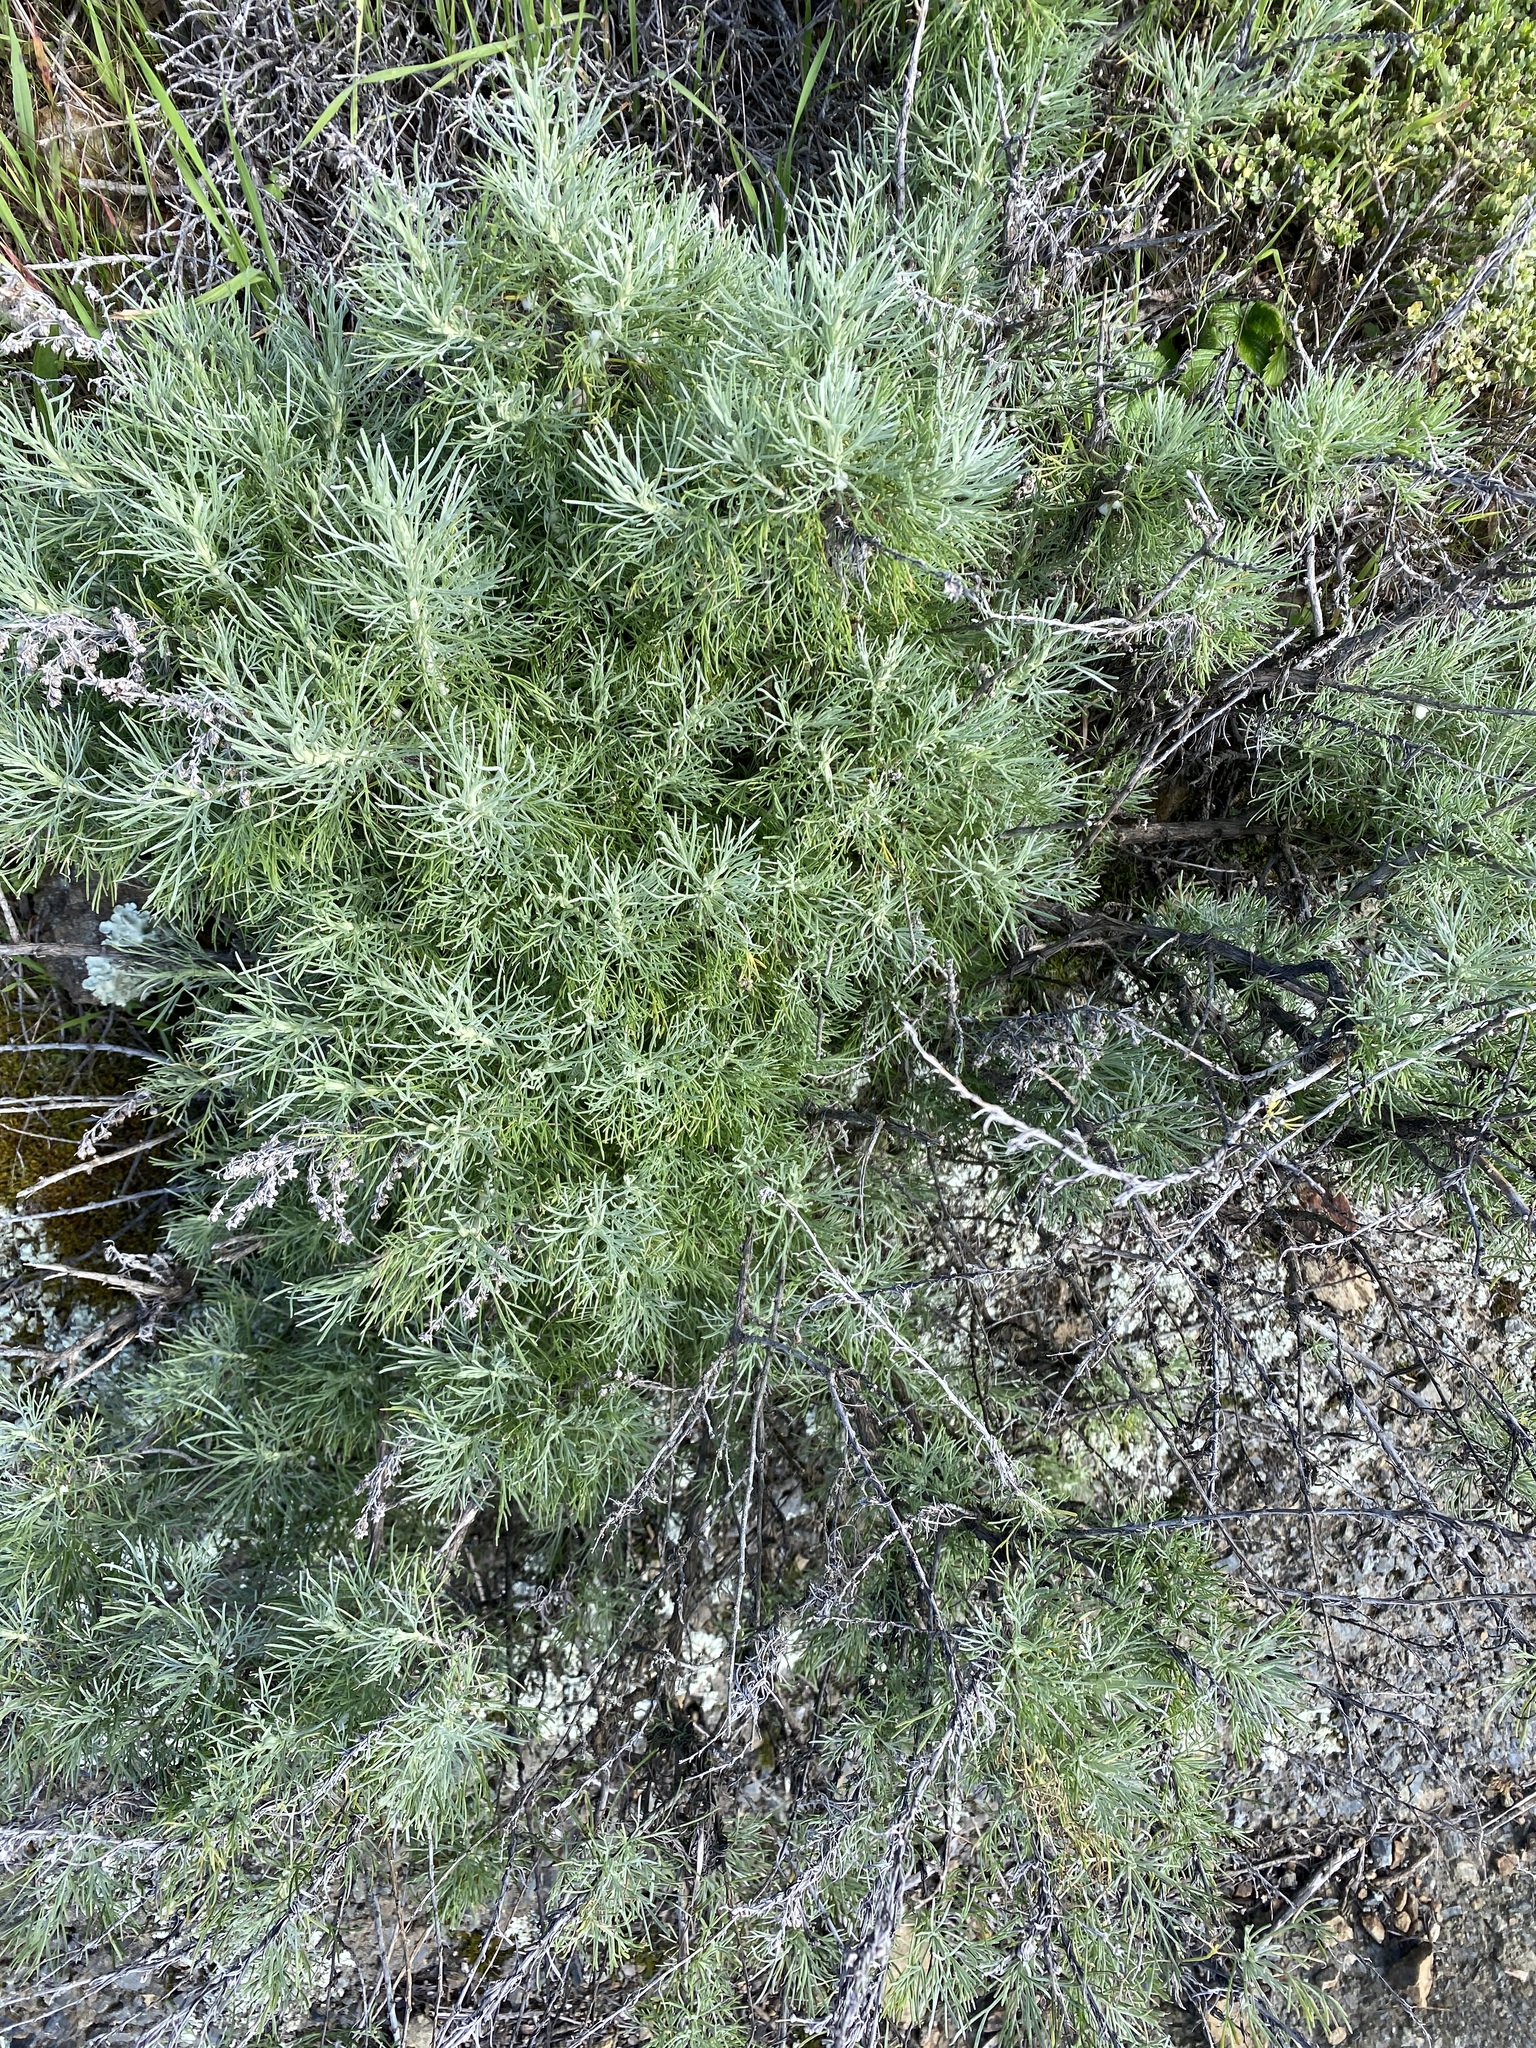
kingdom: Plantae
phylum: Tracheophyta
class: Magnoliopsida
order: Asterales
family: Asteraceae
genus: Artemisia
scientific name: Artemisia californica
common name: California sagebrush
